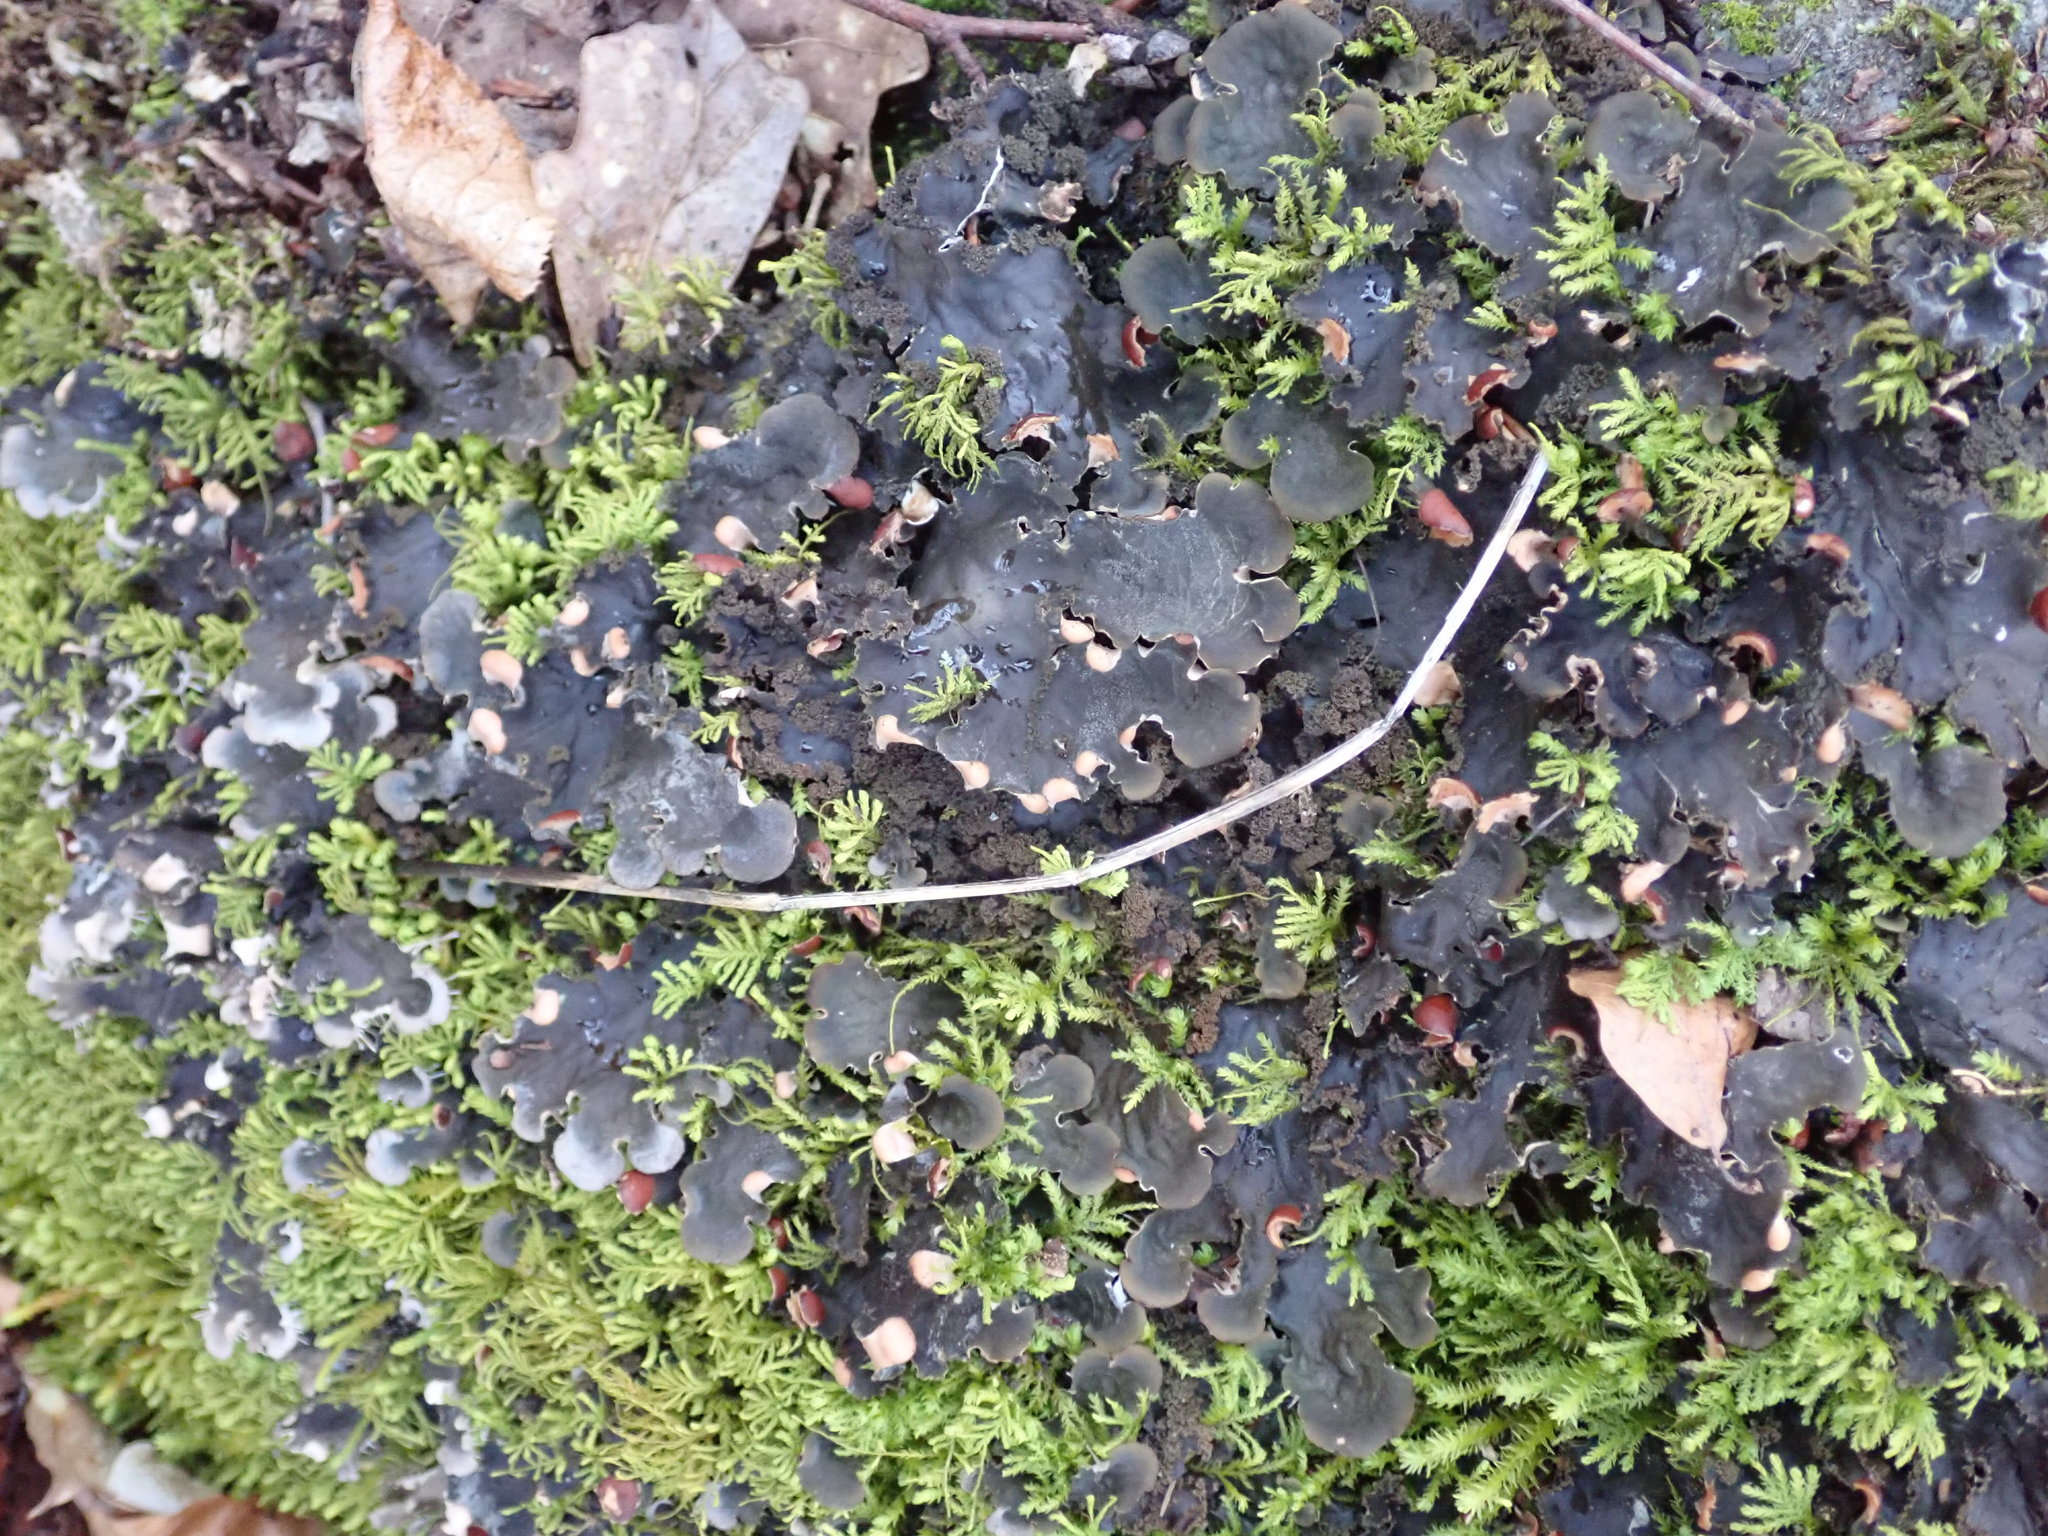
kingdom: Fungi
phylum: Ascomycota
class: Lecanoromycetes
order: Peltigerales
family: Peltigeraceae
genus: Peltigera
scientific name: Peltigera praetextata
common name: Scaly dog-lichen
